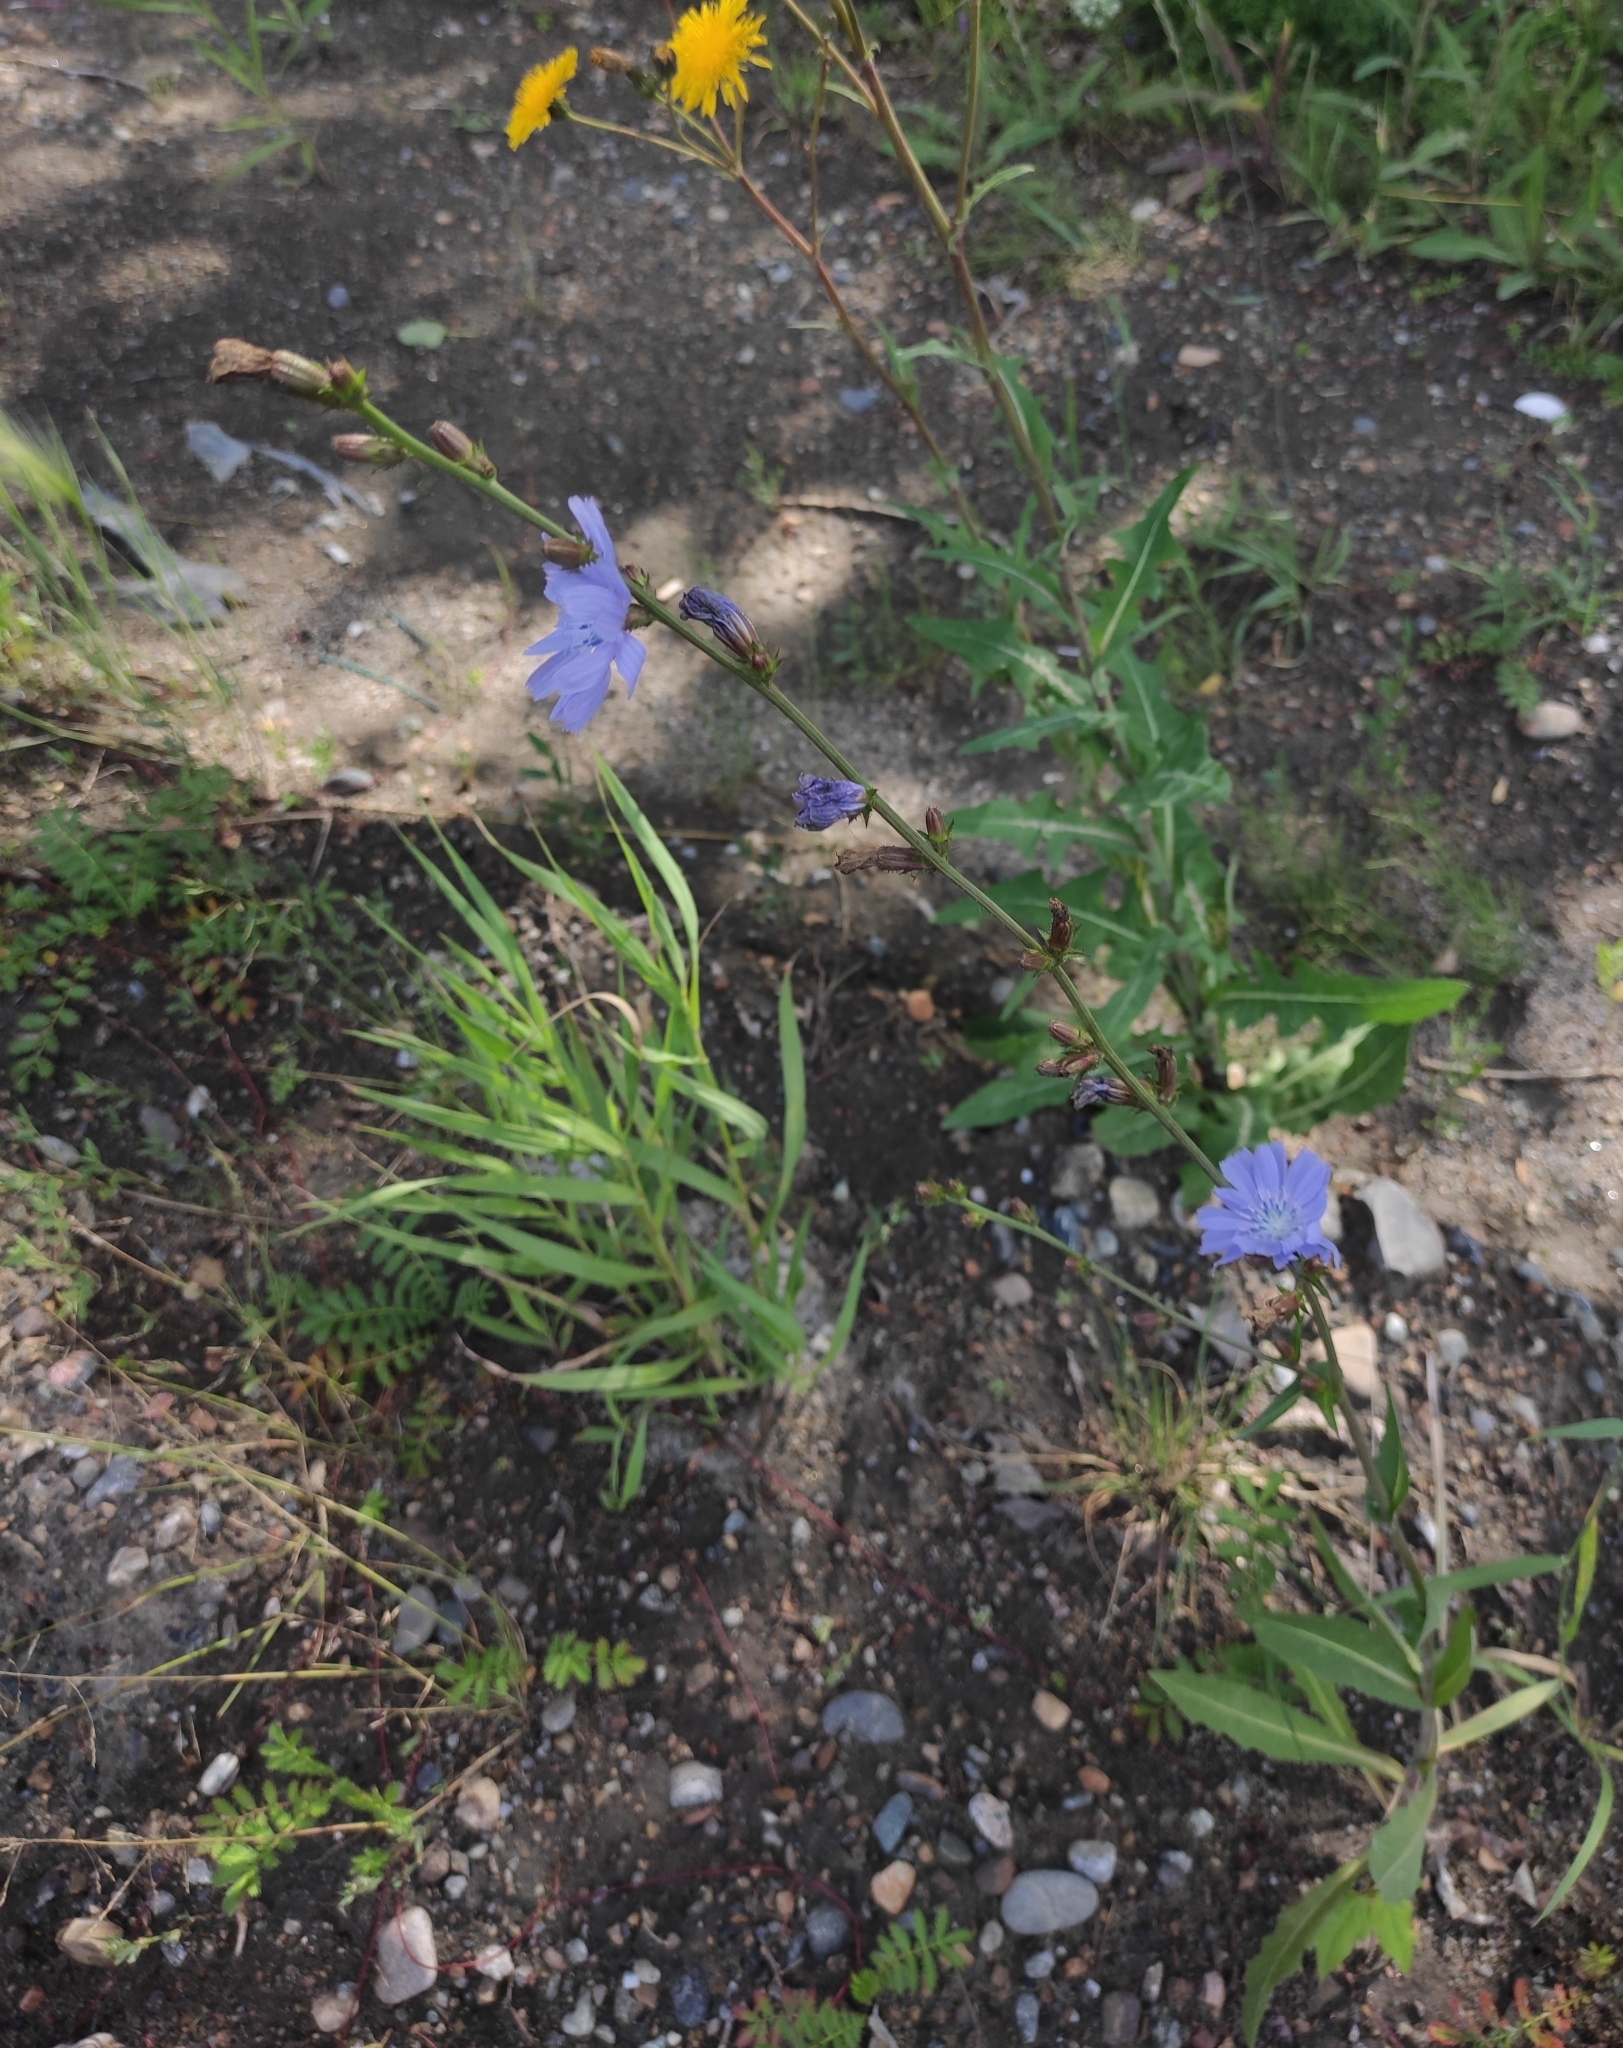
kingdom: Plantae
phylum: Tracheophyta
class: Magnoliopsida
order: Asterales
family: Asteraceae
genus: Cichorium
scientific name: Cichorium intybus
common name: Chicory
